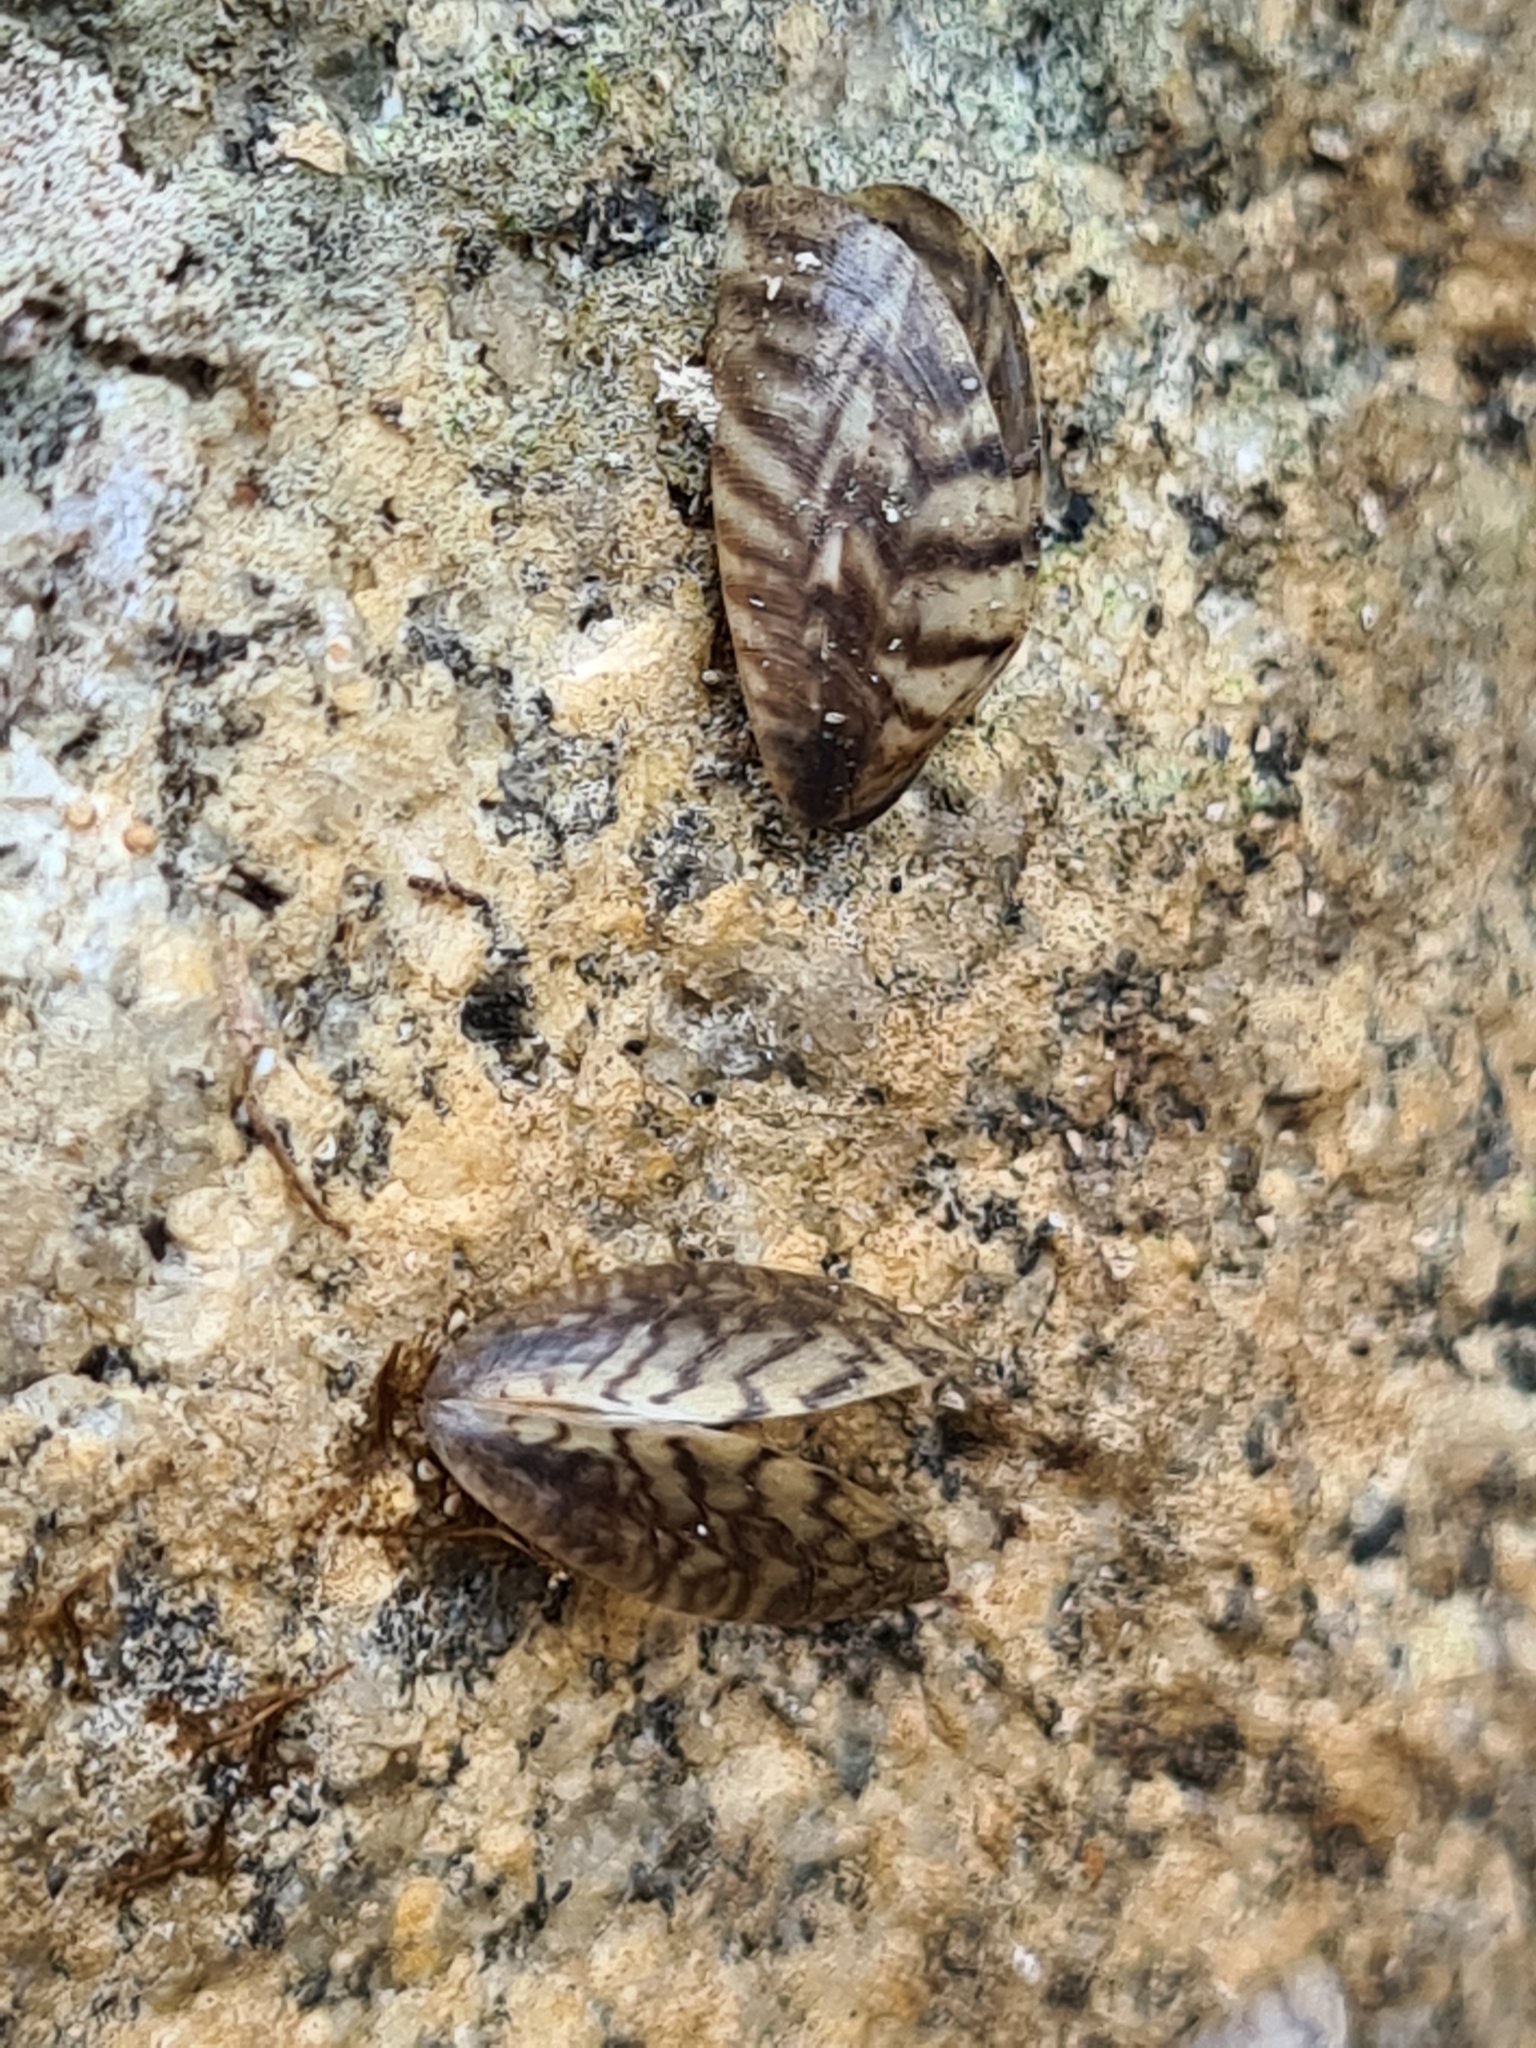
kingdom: Animalia
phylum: Mollusca
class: Bivalvia
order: Myida
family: Dreissenidae
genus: Dreissena
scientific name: Dreissena polymorpha
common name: Zebra mussel
